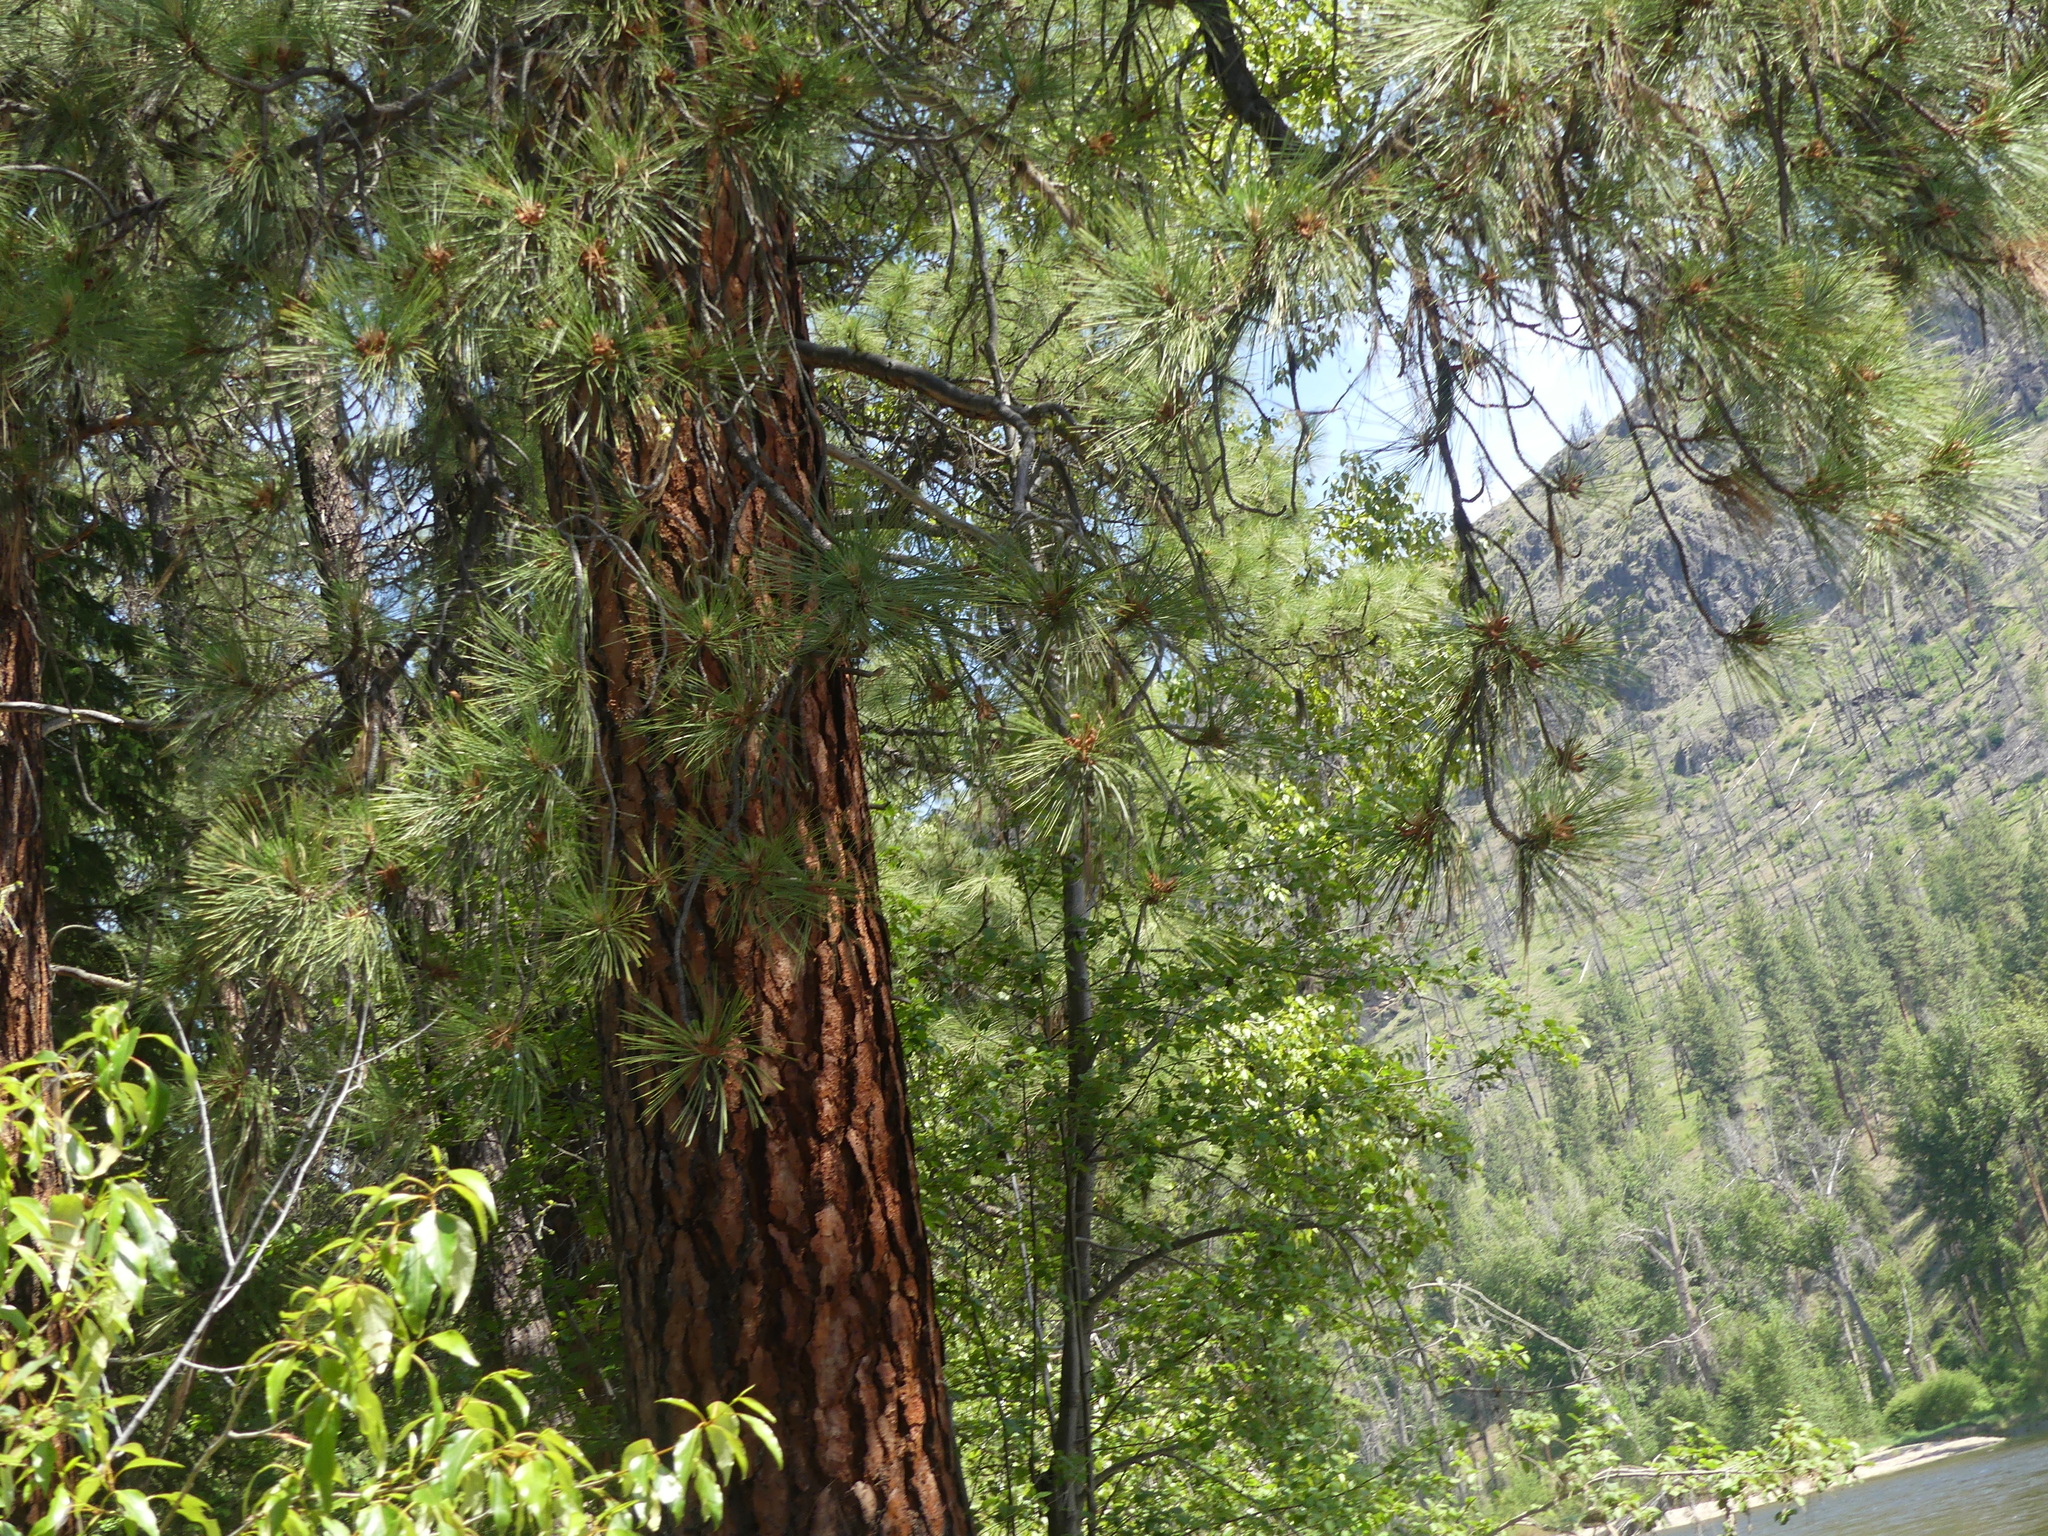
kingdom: Plantae
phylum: Tracheophyta
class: Pinopsida
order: Pinales
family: Pinaceae
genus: Pinus
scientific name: Pinus ponderosa
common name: Western yellow-pine
